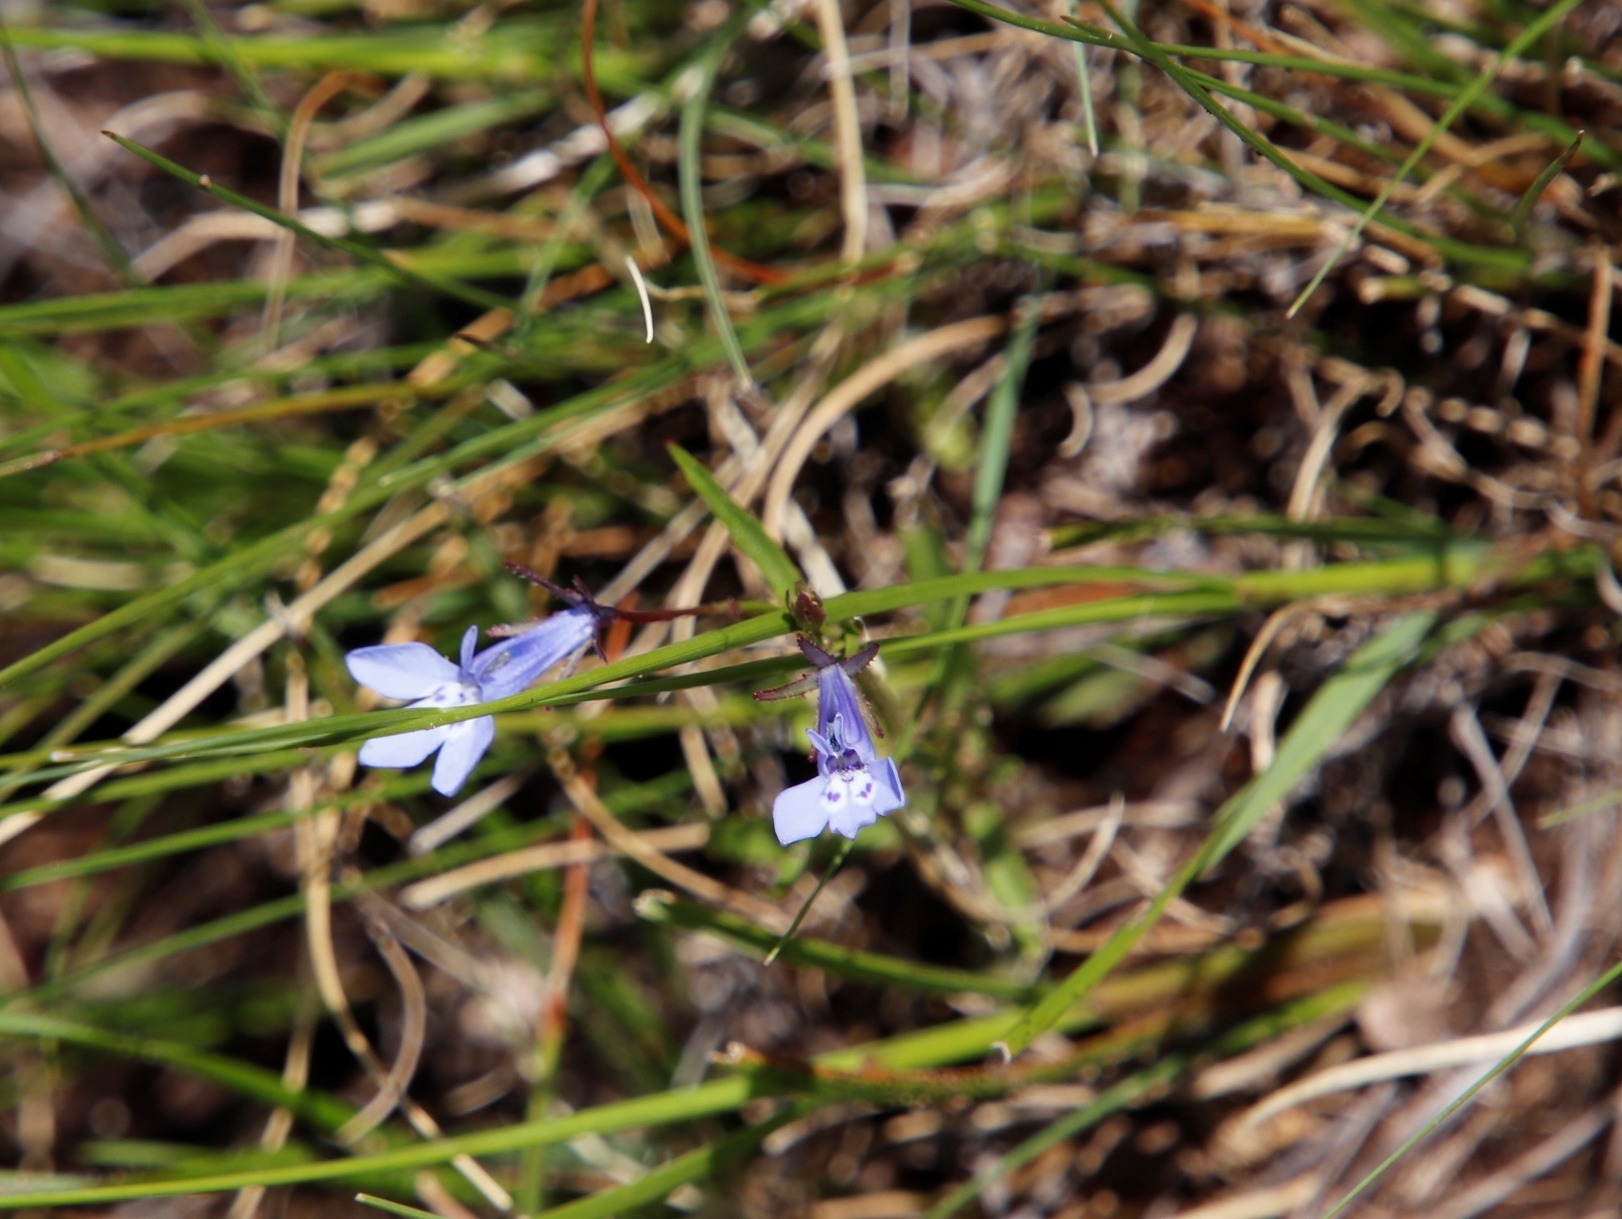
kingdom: Plantae
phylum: Tracheophyta
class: Magnoliopsida
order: Asterales
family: Campanulaceae
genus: Lobelia
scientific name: Lobelia flaccida
